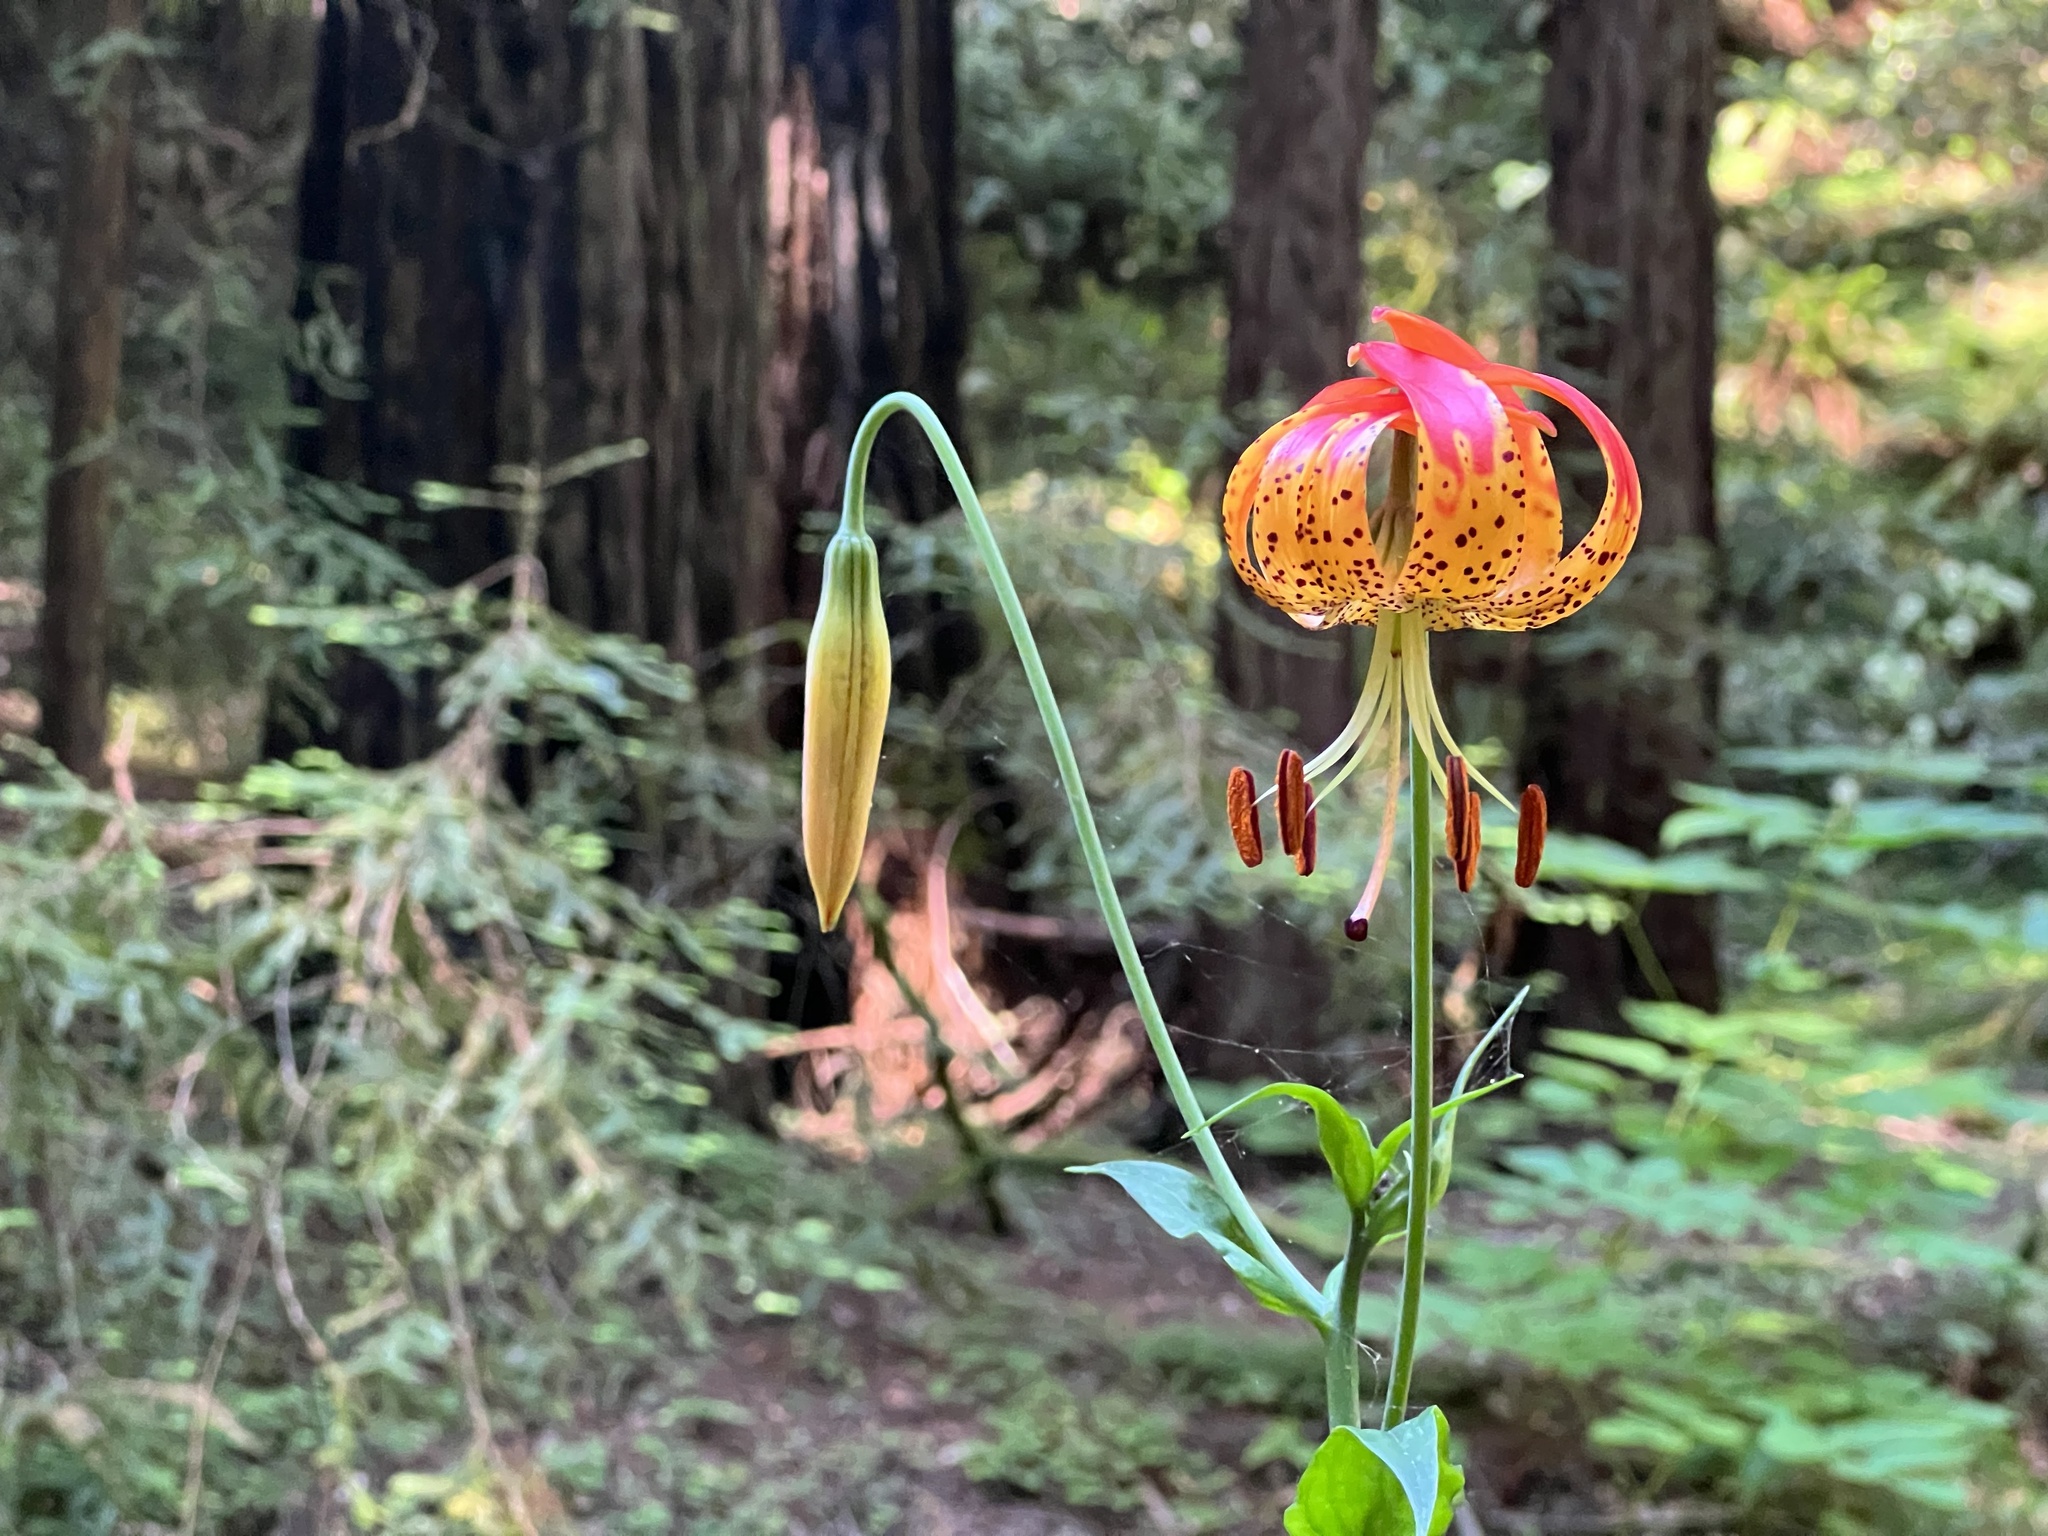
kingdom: Plantae
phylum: Tracheophyta
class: Liliopsida
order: Liliales
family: Liliaceae
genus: Lilium
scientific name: Lilium pardalinum
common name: Panther lily
